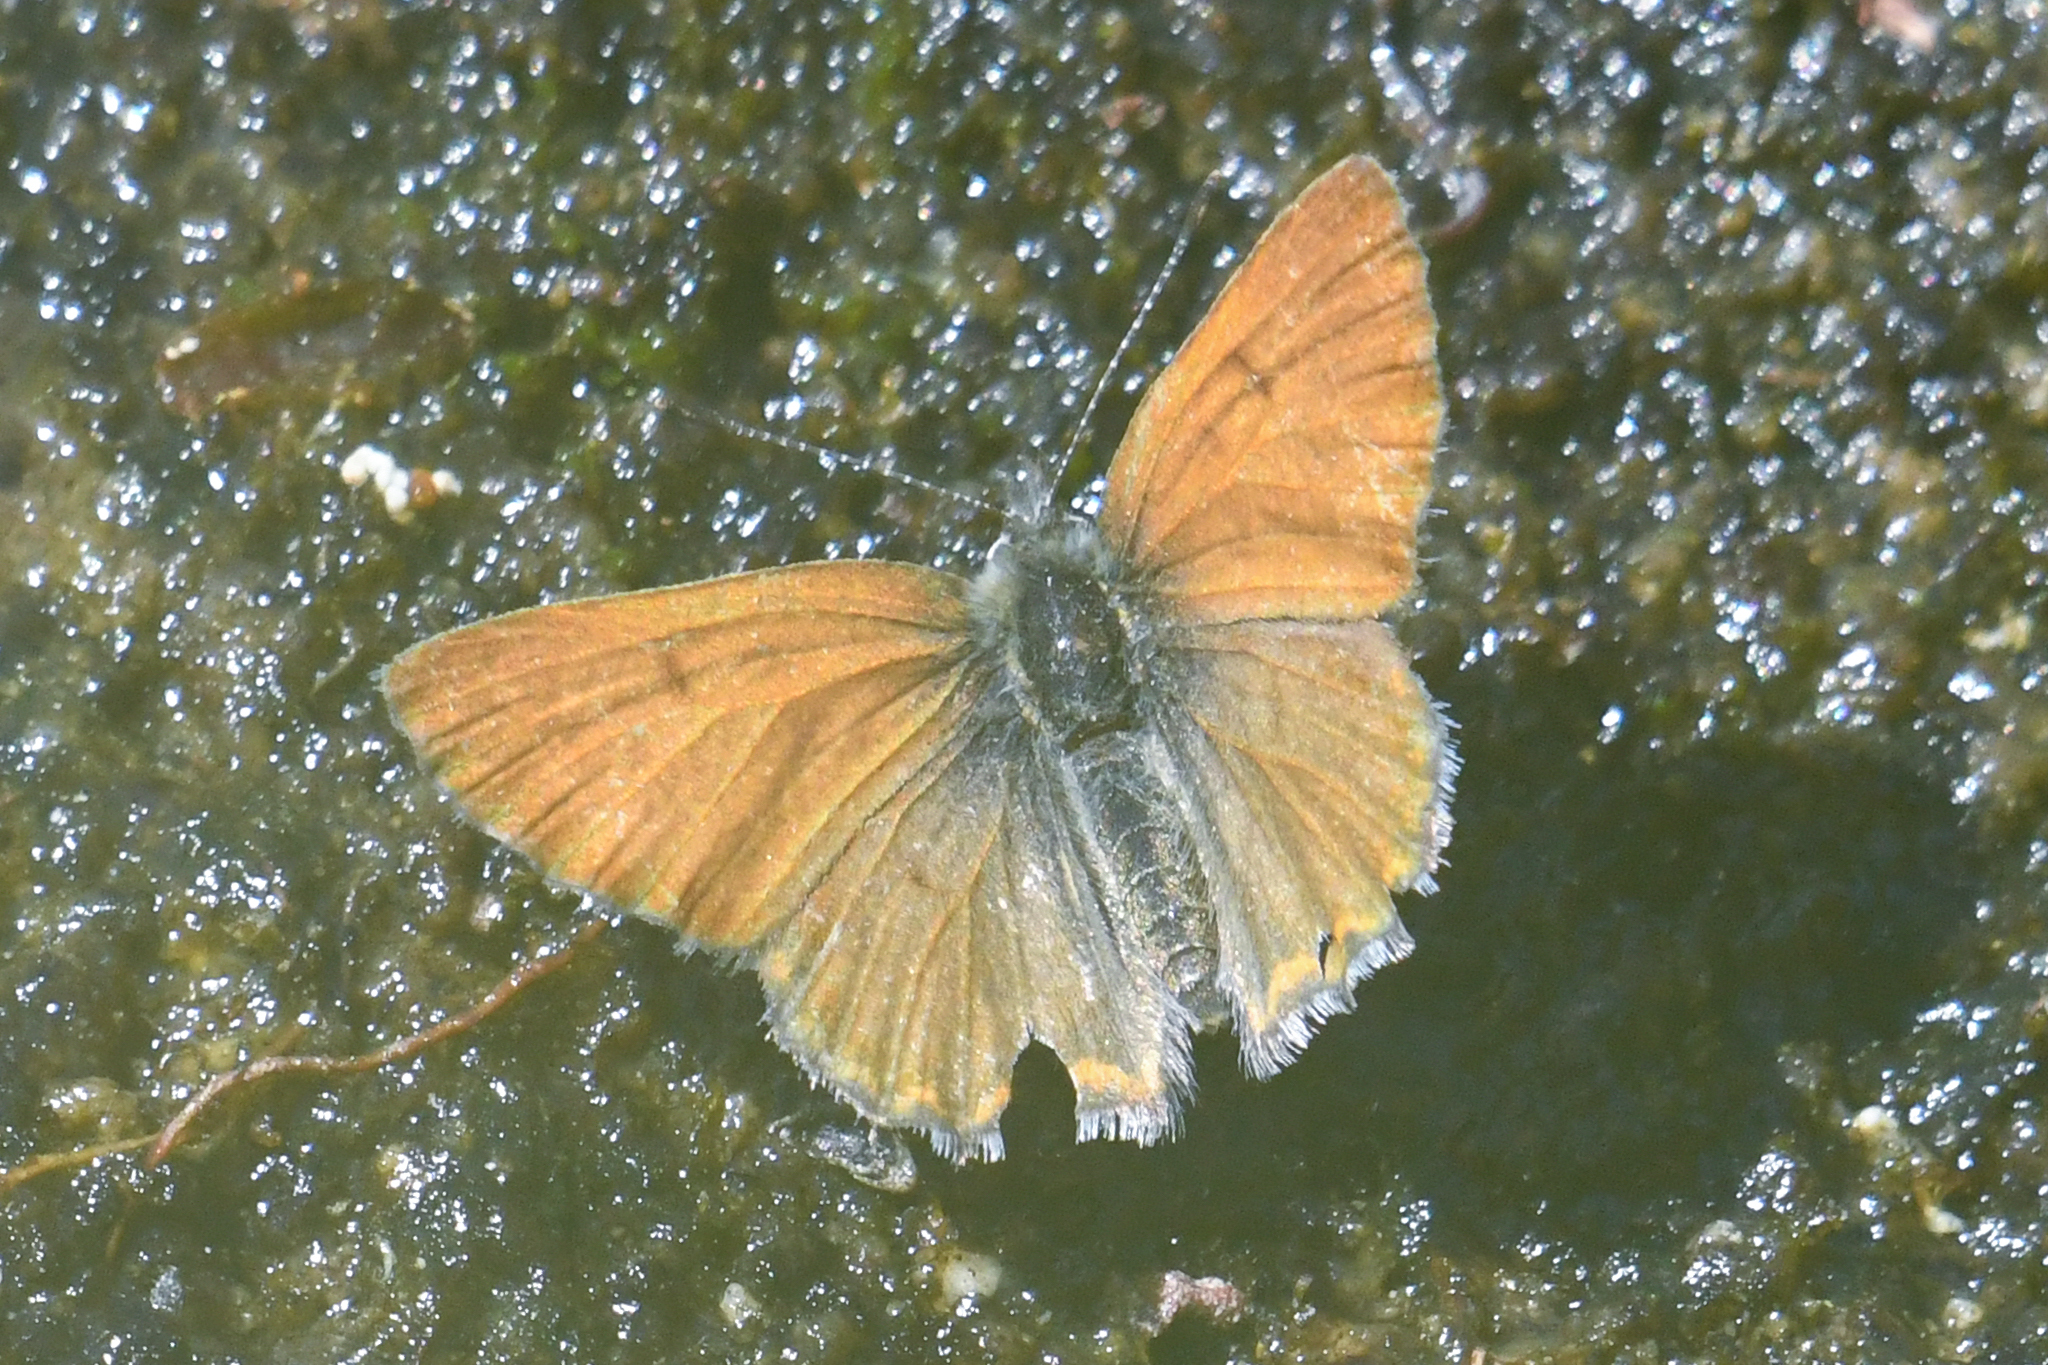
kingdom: Animalia
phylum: Arthropoda
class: Insecta
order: Lepidoptera
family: Lycaenidae
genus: Tharsalea
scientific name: Tharsalea mariposa
